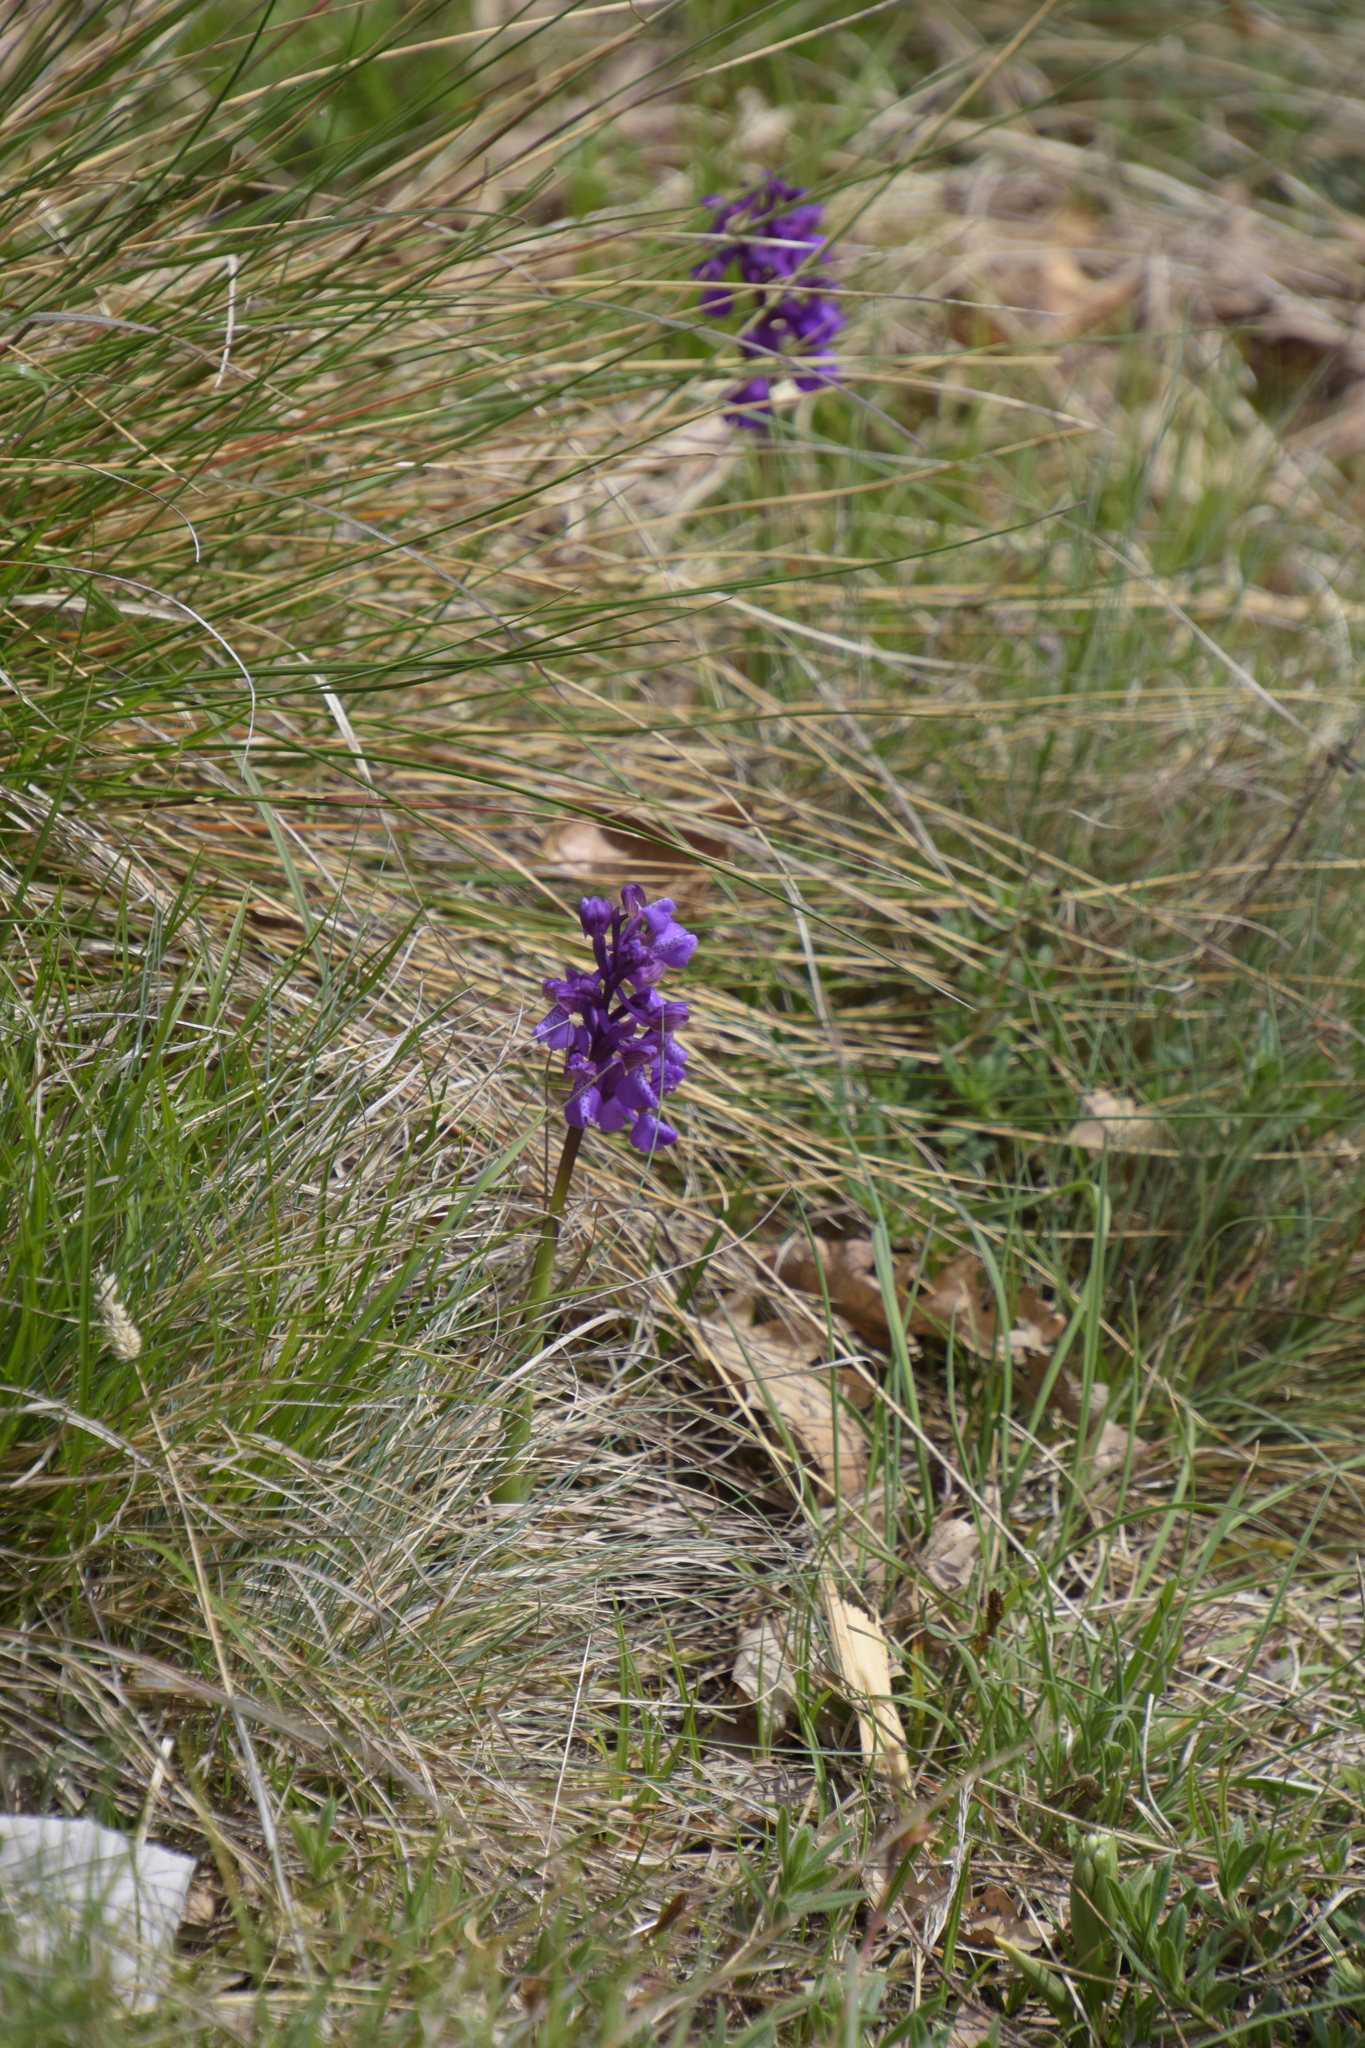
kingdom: Plantae
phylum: Tracheophyta
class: Liliopsida
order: Asparagales
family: Orchidaceae
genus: Anacamptis
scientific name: Anacamptis morio
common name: Green-winged orchid
